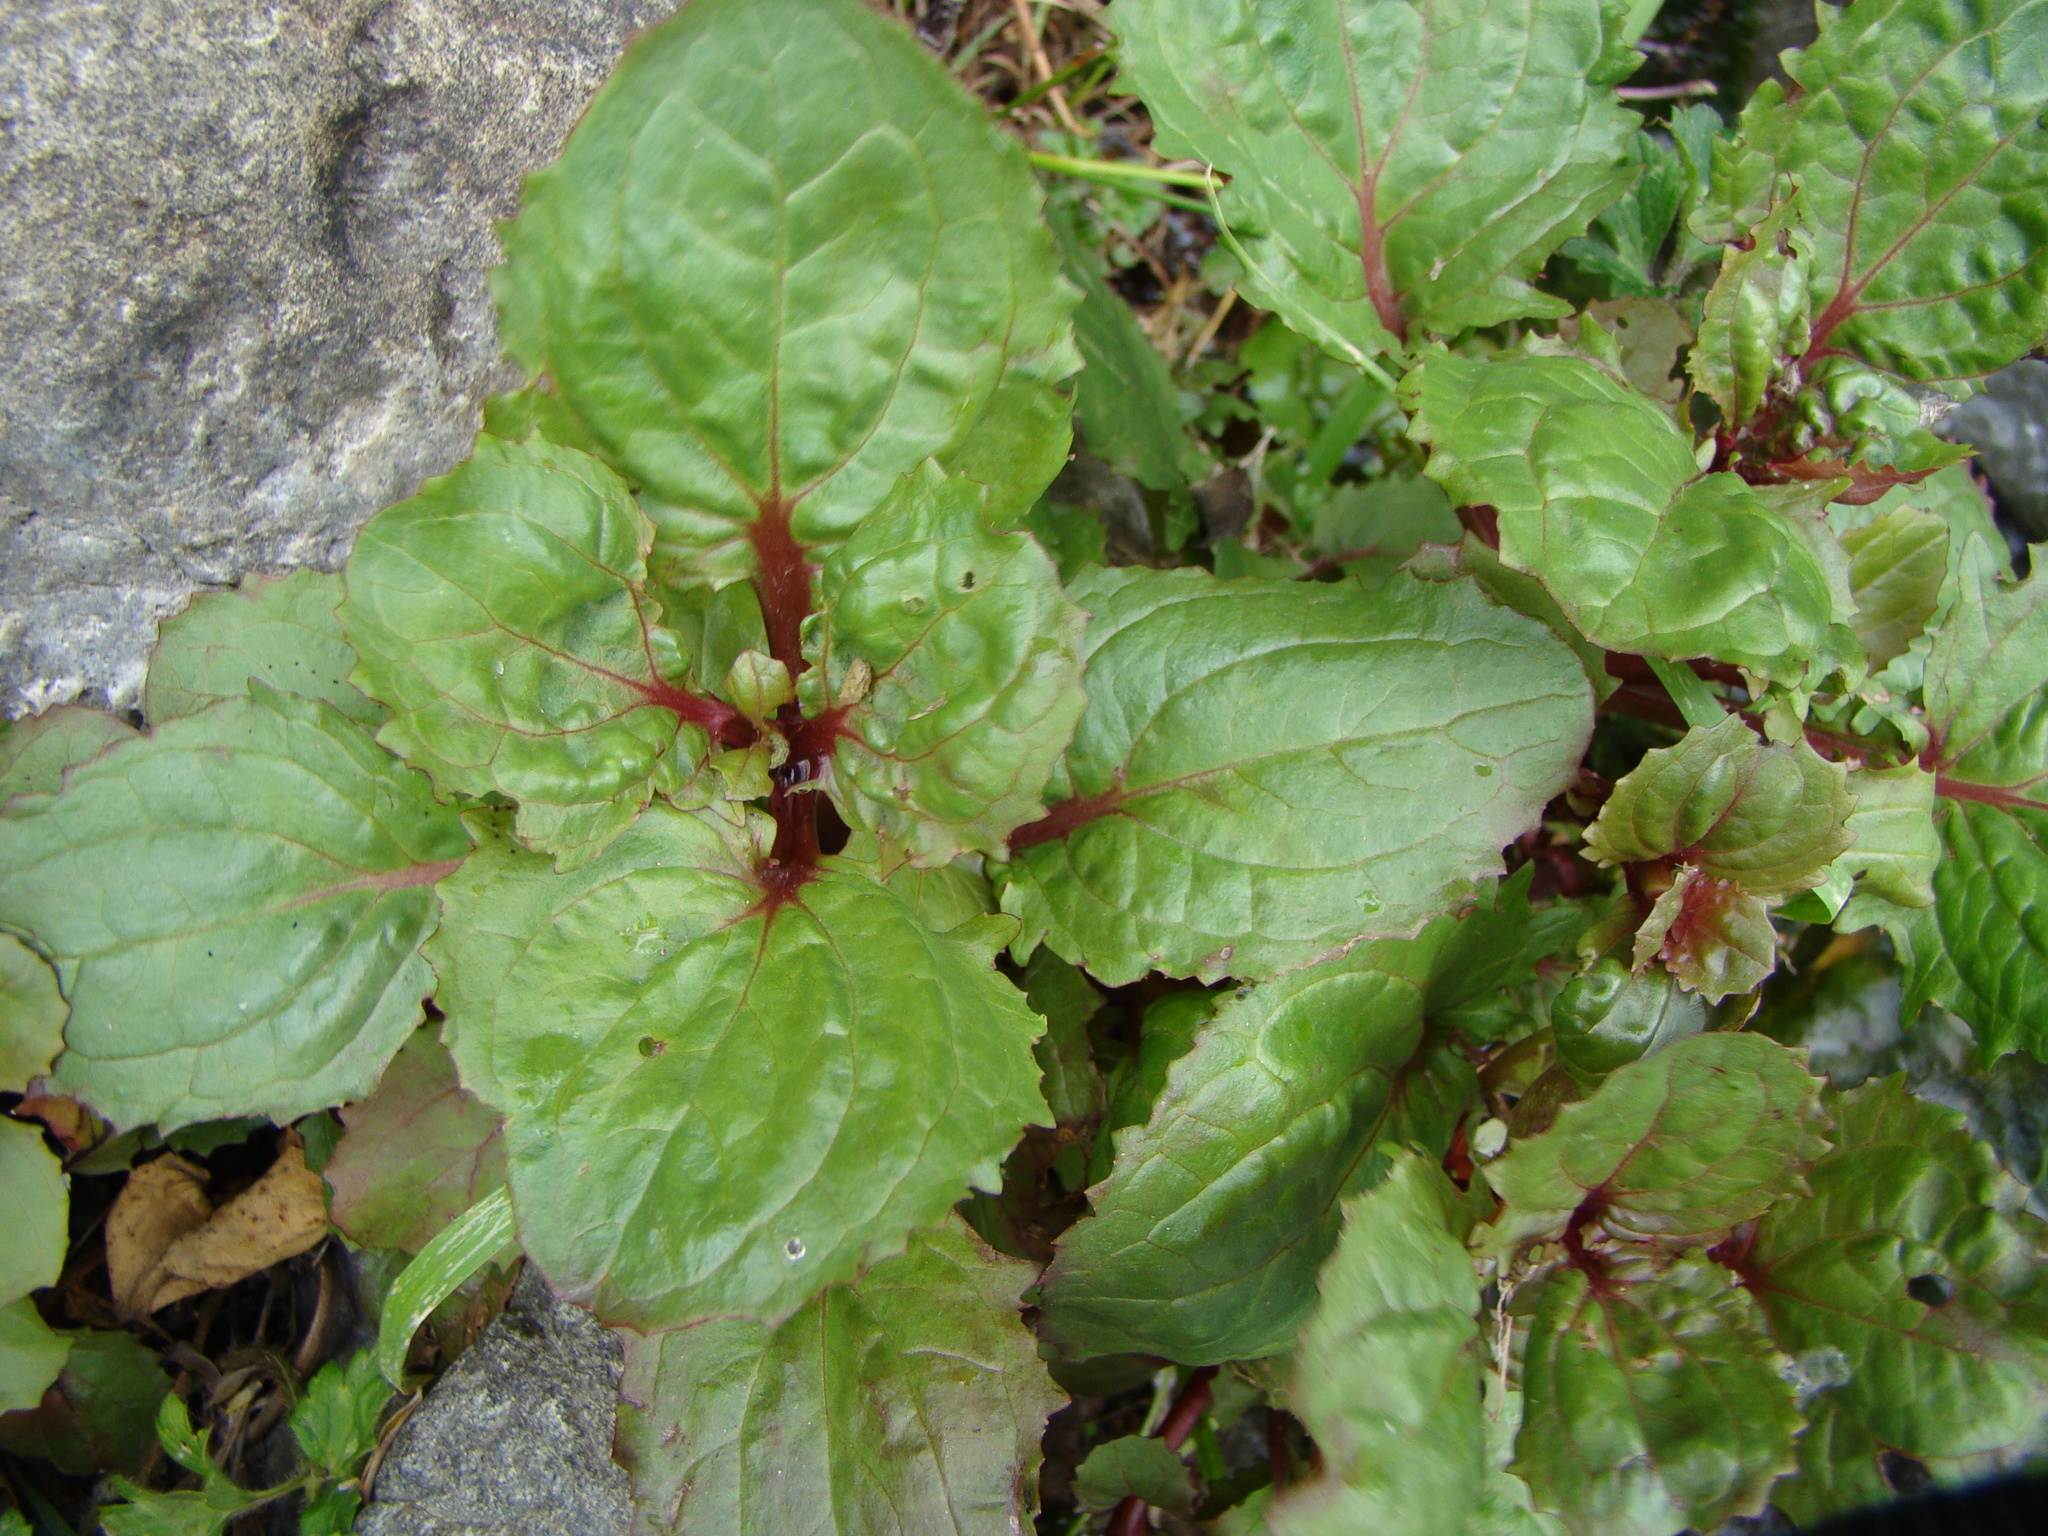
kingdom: Plantae
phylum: Tracheophyta
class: Magnoliopsida
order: Lamiales
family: Phrymaceae
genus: Erythranthe
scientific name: Erythranthe guttata
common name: Monkeyflower
